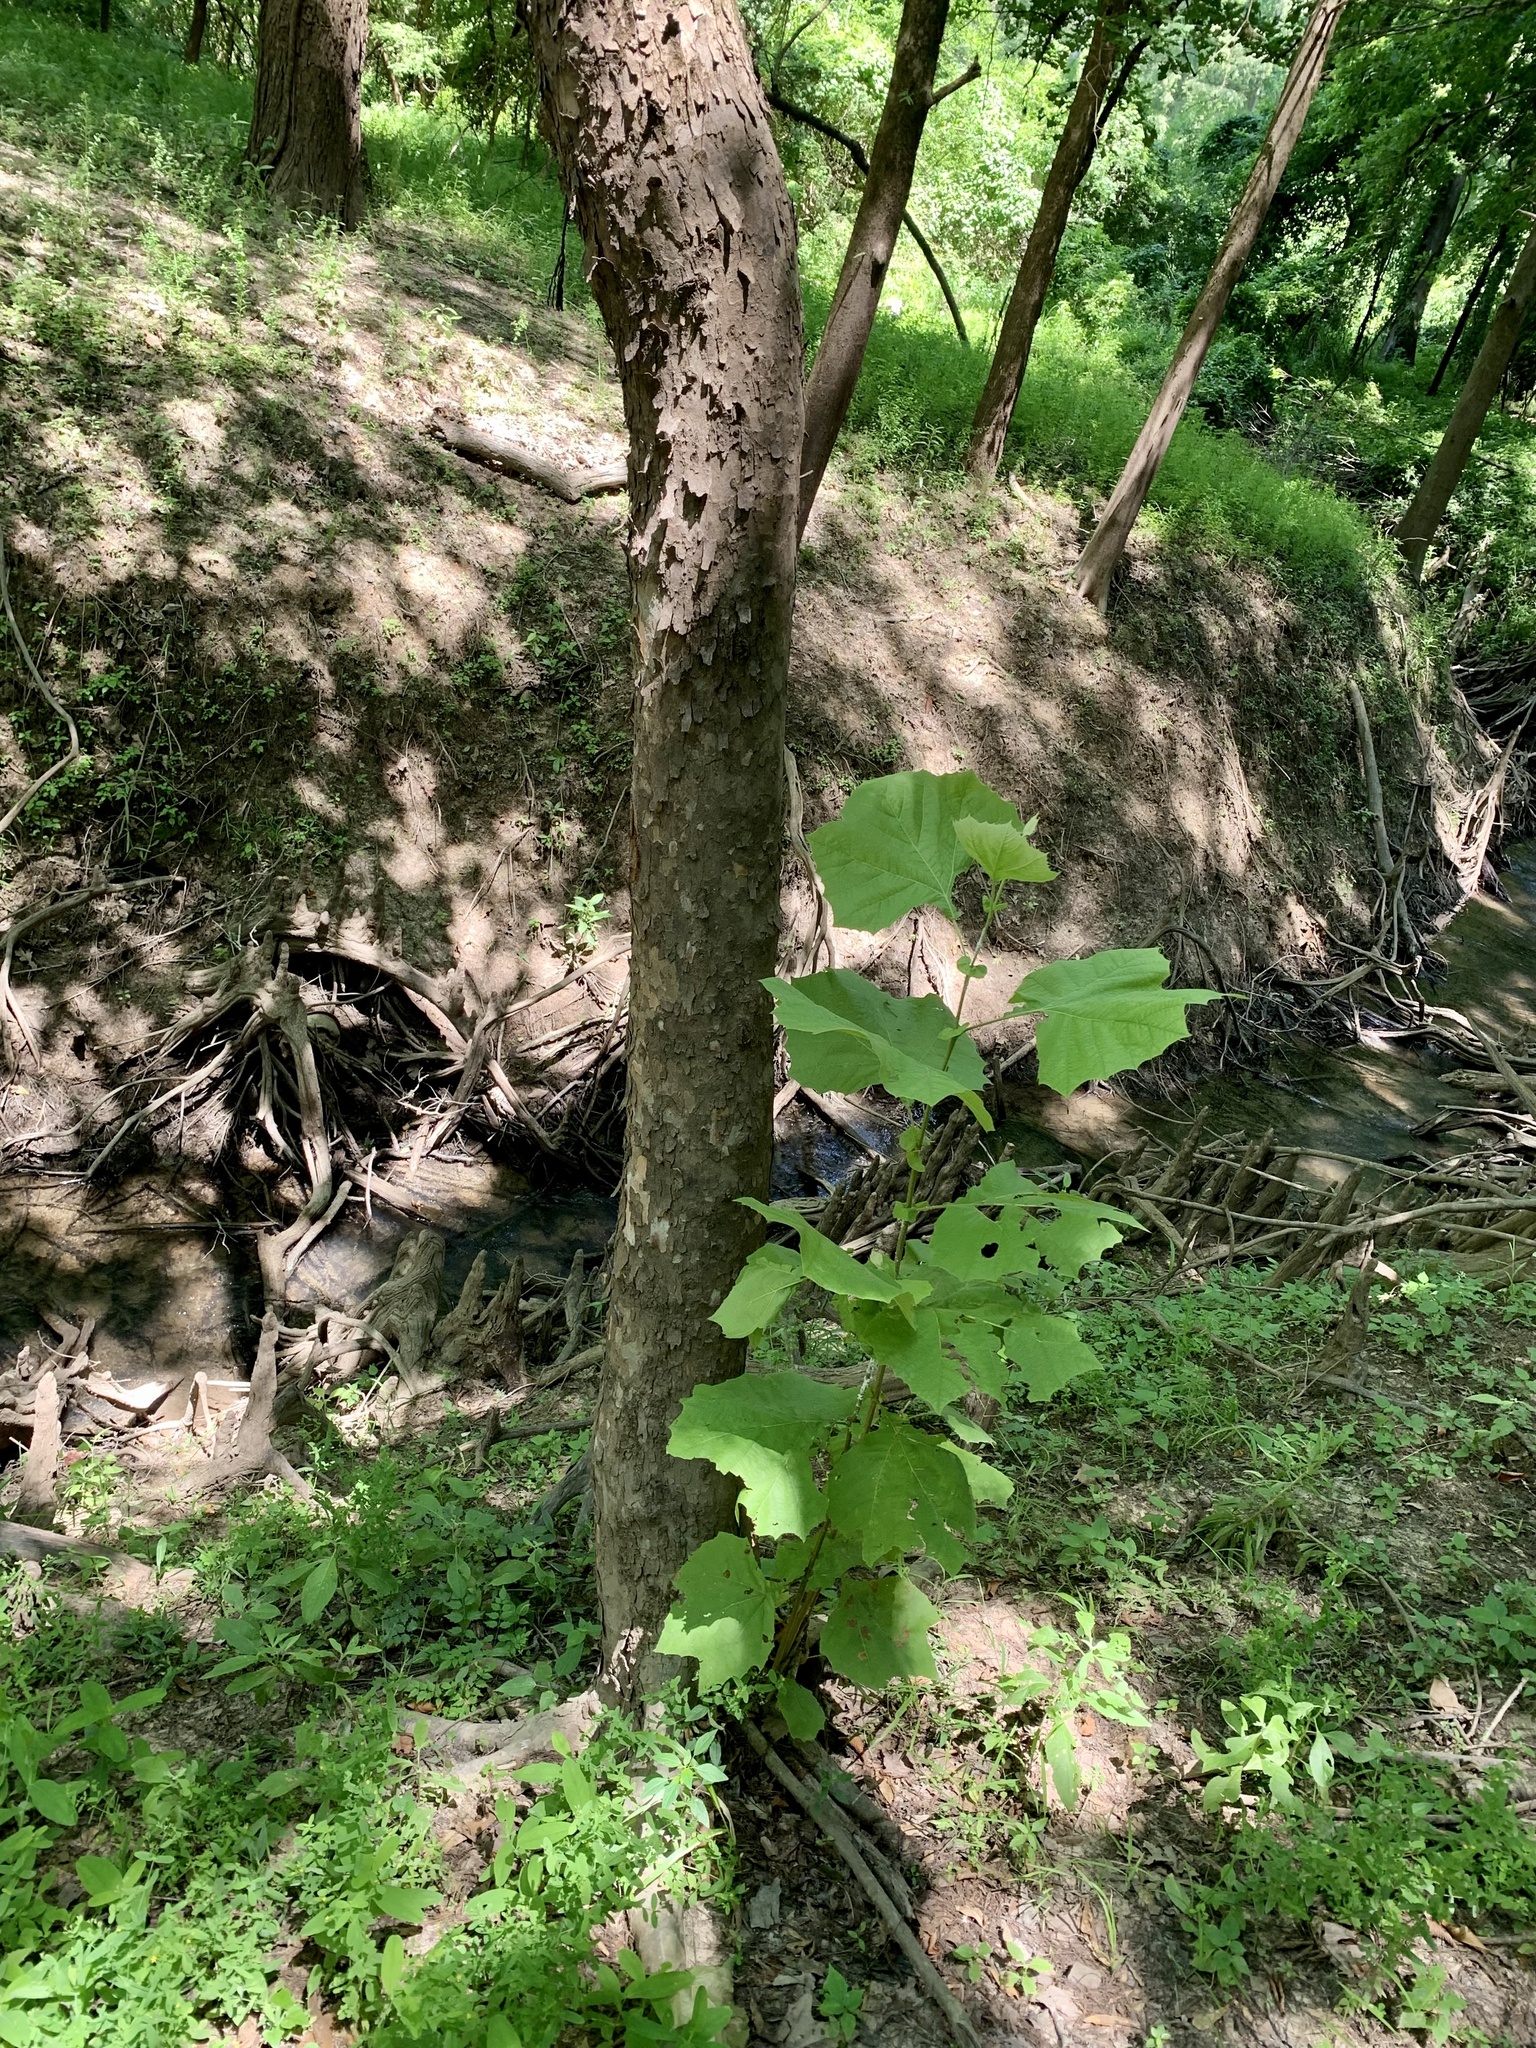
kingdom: Plantae
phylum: Tracheophyta
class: Magnoliopsida
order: Proteales
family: Platanaceae
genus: Platanus
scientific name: Platanus occidentalis
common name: American sycamore
